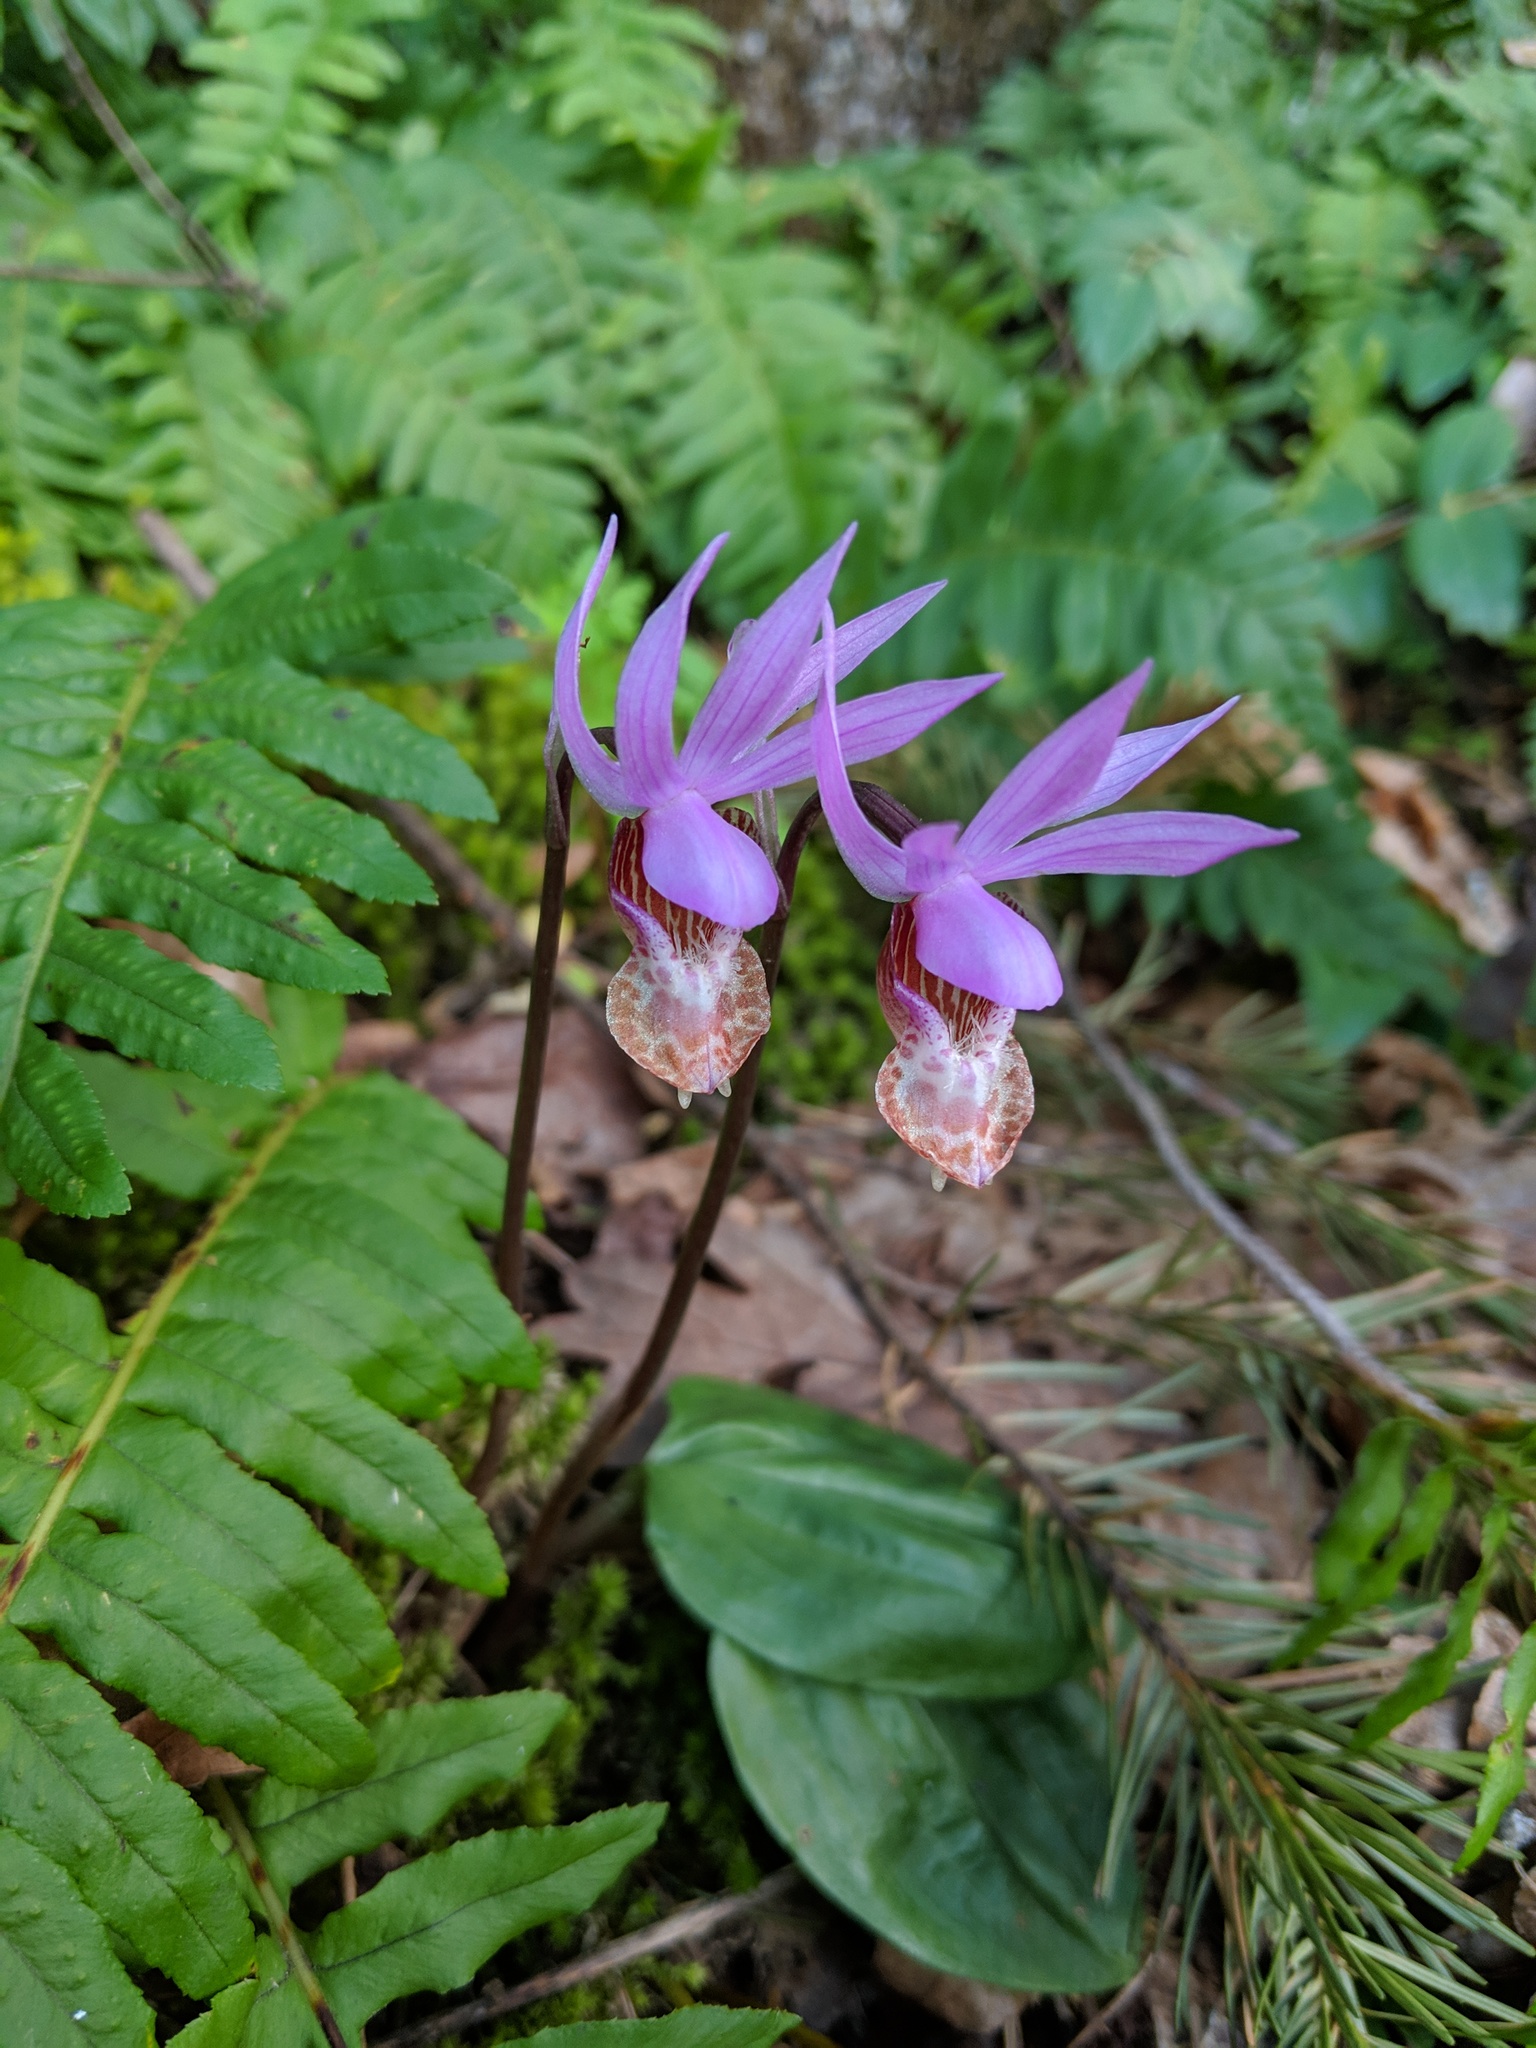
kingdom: Plantae
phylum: Tracheophyta
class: Liliopsida
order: Asparagales
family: Orchidaceae
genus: Calypso
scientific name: Calypso bulbosa
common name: Calypso
